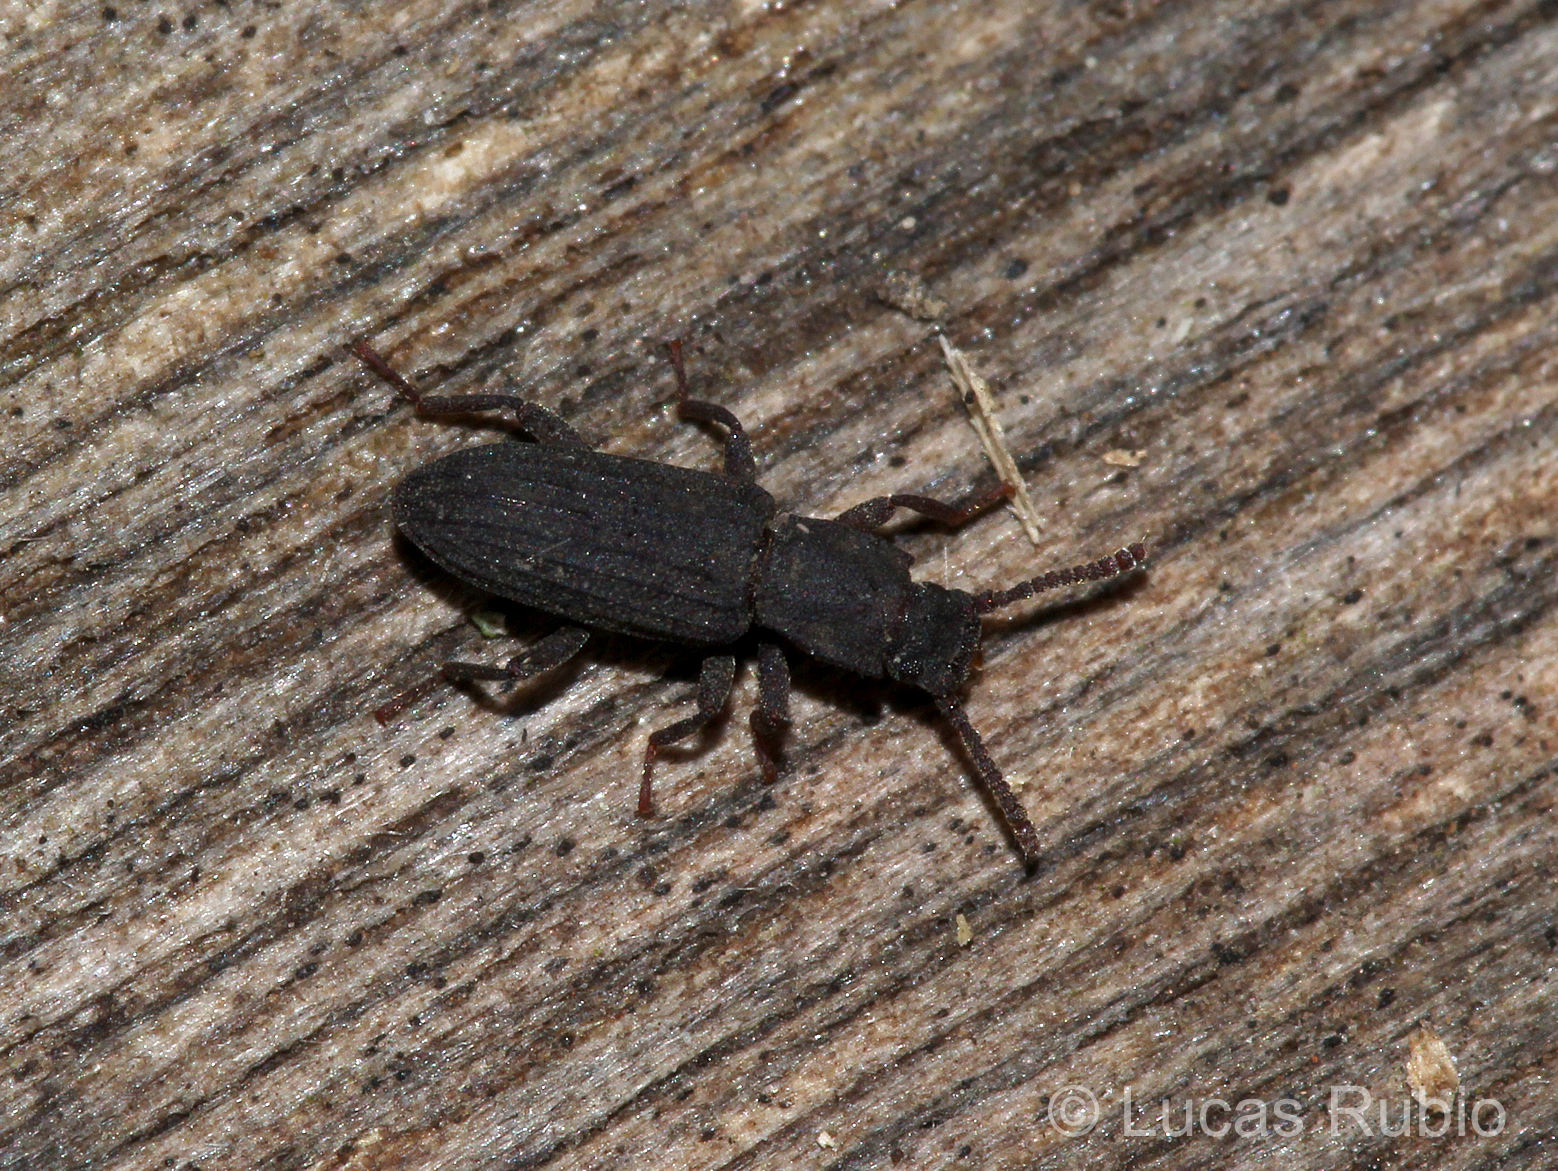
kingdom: Animalia
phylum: Arthropoda
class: Insecta
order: Coleoptera
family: Tenebrionidae
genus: Rhypasma
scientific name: Rhypasma
